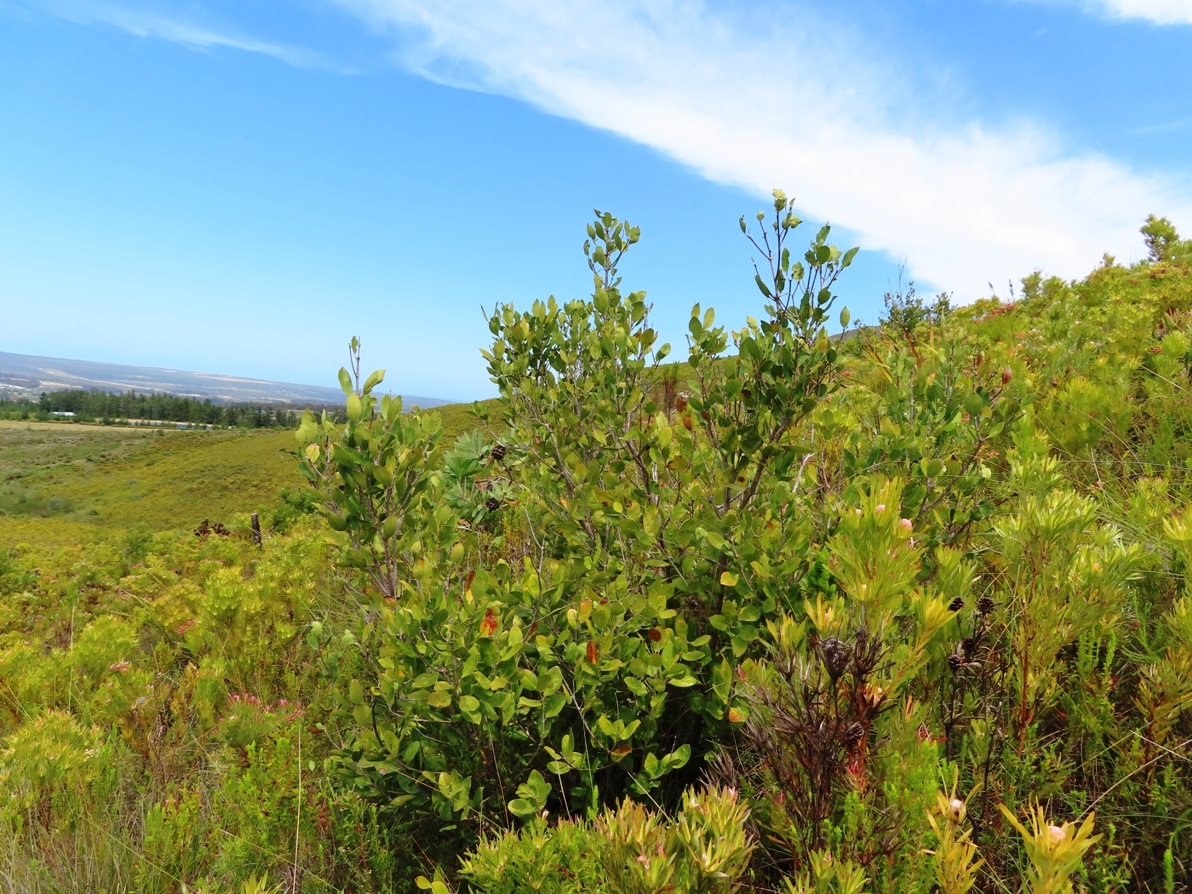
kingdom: Plantae
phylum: Tracheophyta
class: Magnoliopsida
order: Lamiales
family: Oleaceae
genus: Olea
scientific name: Olea capensis
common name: Black ironwood
